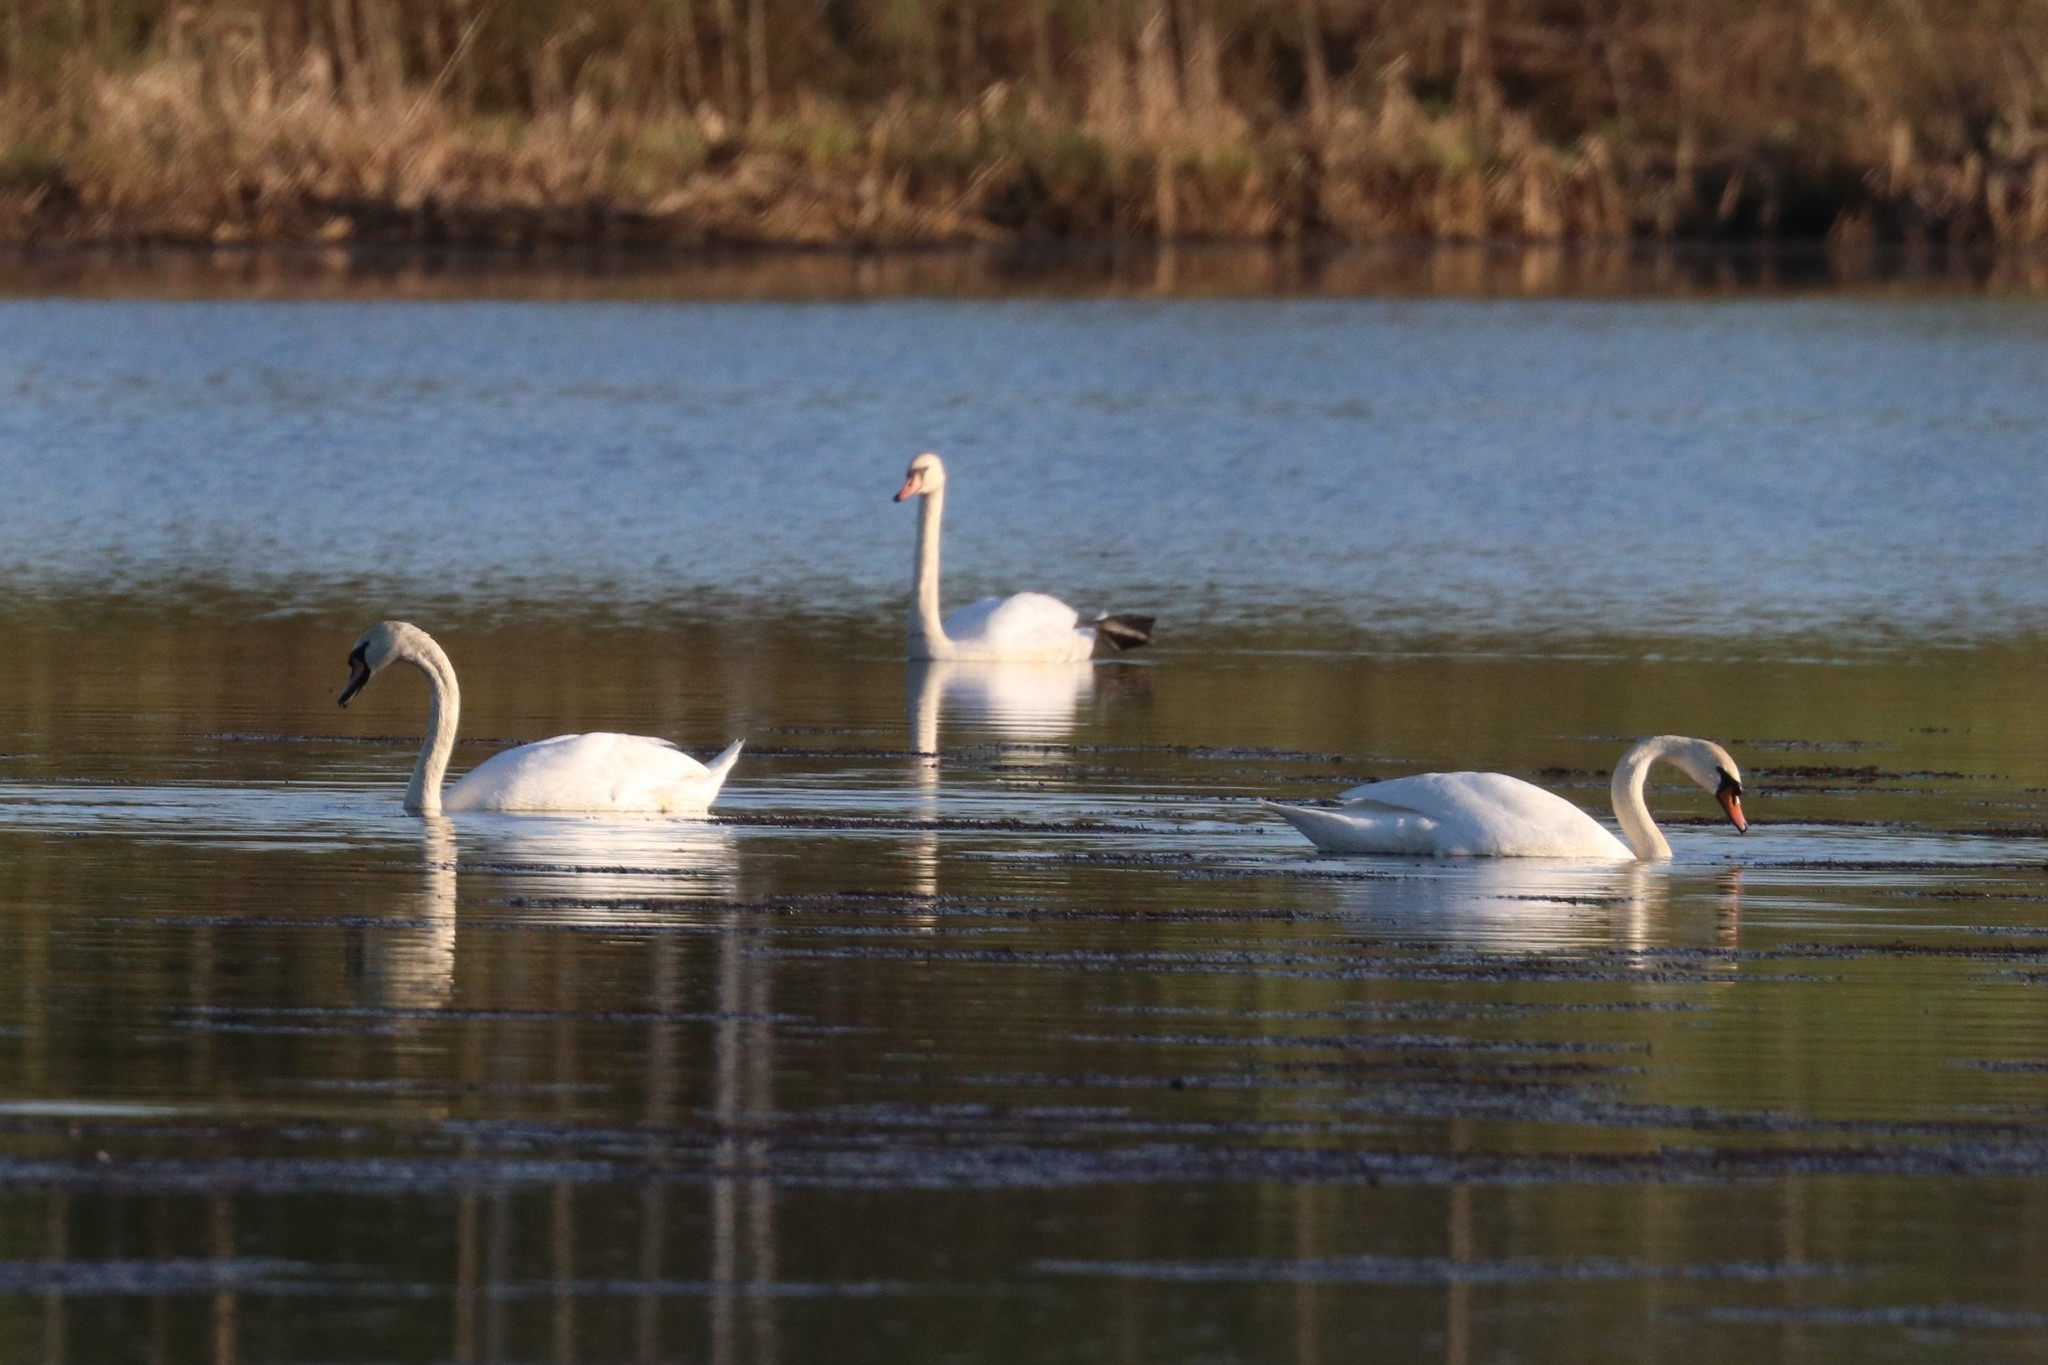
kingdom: Animalia
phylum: Chordata
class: Aves
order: Anseriformes
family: Anatidae
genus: Cygnus
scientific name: Cygnus olor
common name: Mute swan
